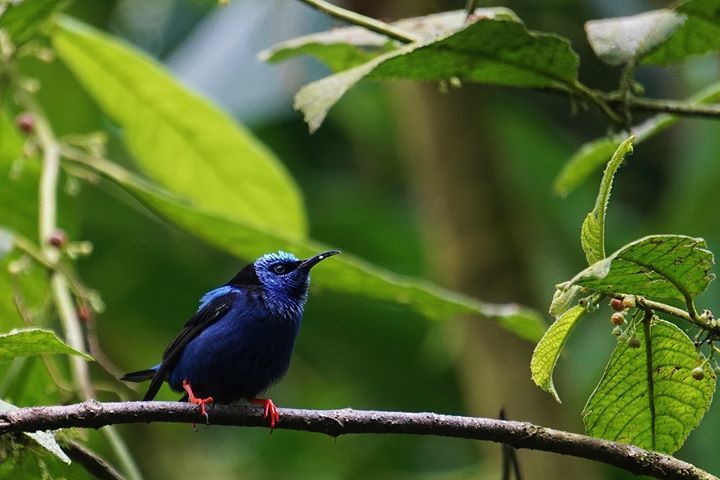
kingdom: Animalia
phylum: Chordata
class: Aves
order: Passeriformes
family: Thraupidae
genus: Cyanerpes
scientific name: Cyanerpes cyaneus
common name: Red-legged honeycreeper
